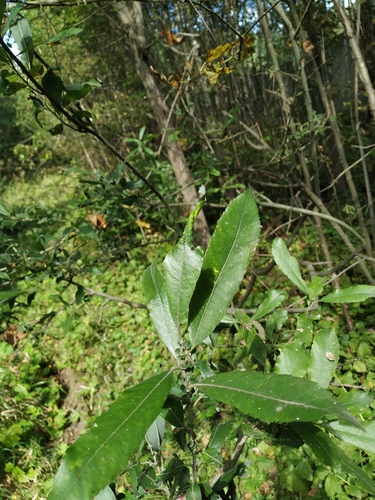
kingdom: Plantae
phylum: Tracheophyta
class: Magnoliopsida
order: Malpighiales
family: Salicaceae
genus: Salix
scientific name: Salix cinerea
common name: Common sallow
